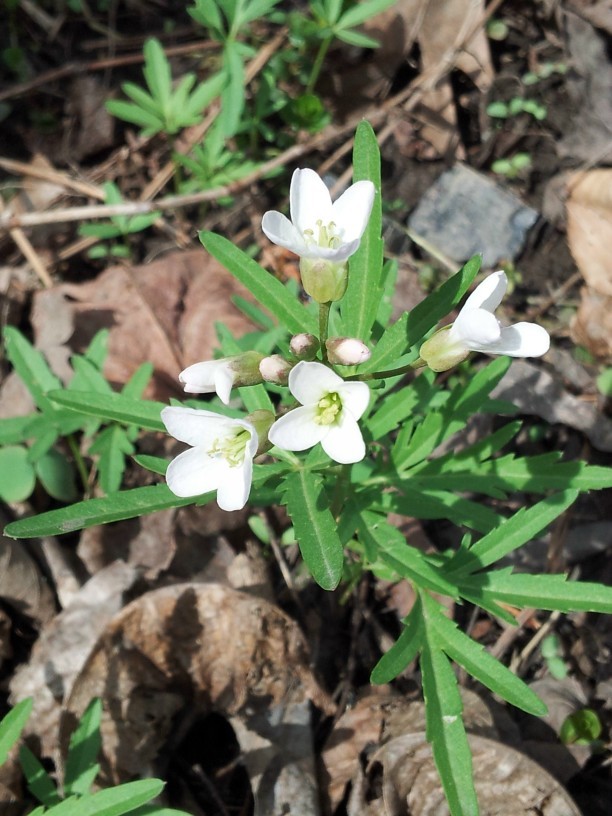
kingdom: Plantae
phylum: Tracheophyta
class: Magnoliopsida
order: Brassicales
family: Brassicaceae
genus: Cardamine
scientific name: Cardamine concatenata
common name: Cut-leaf toothcup
